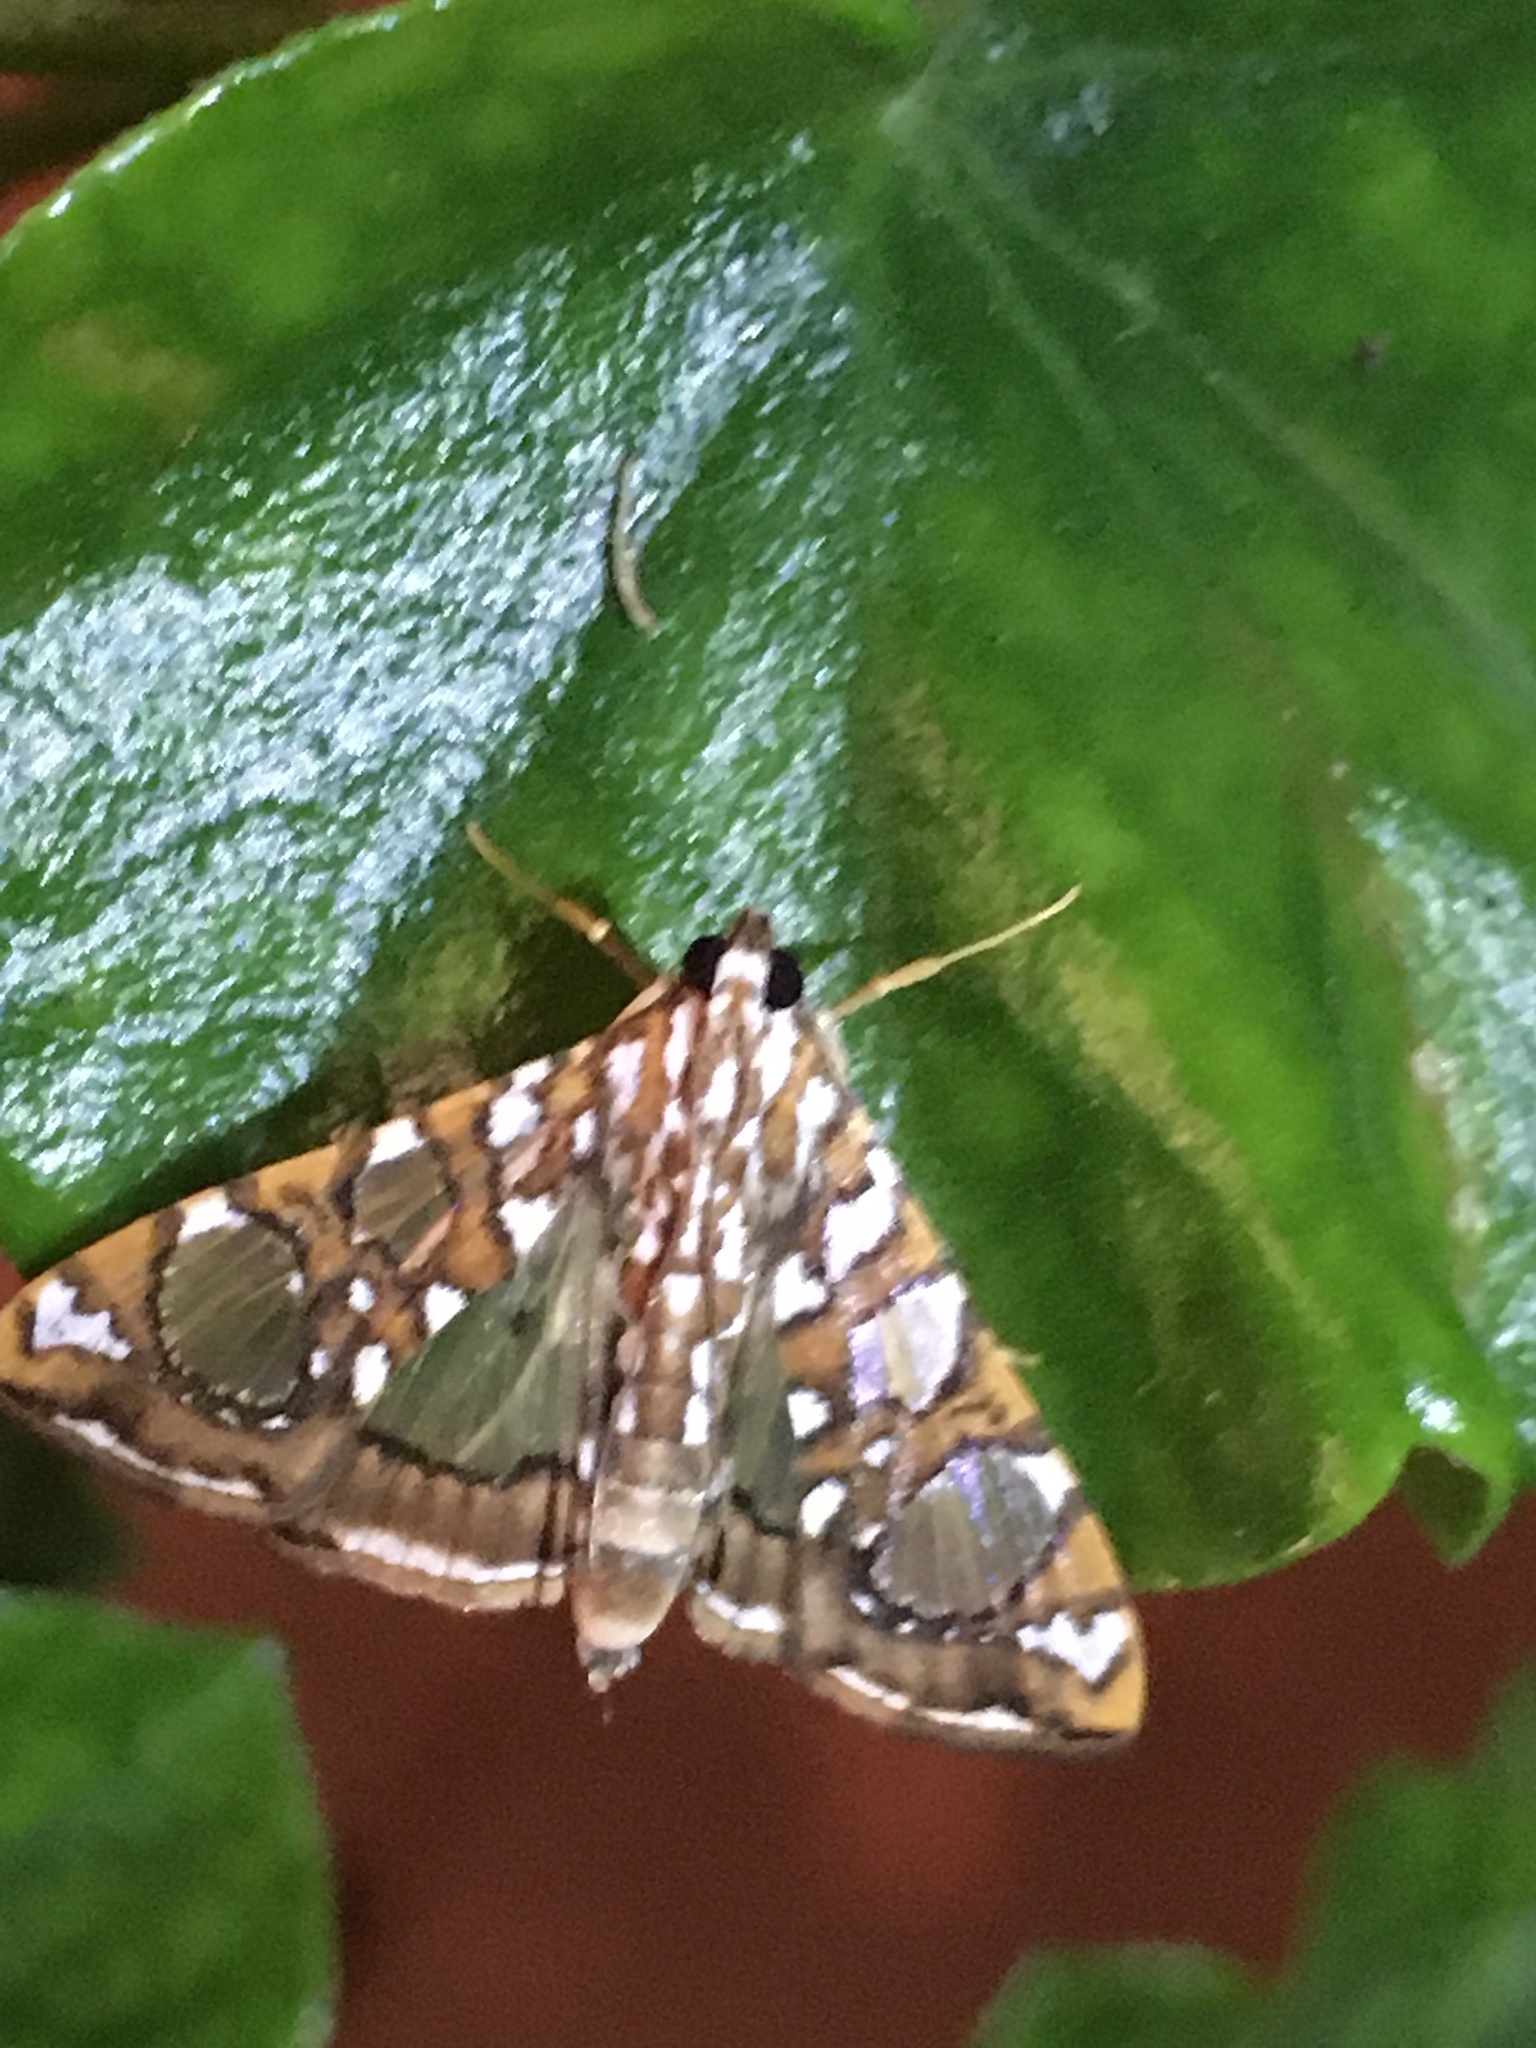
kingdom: Animalia
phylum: Arthropoda
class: Insecta
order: Lepidoptera
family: Crambidae
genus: Glyphodes
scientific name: Glyphodes sibillalis
